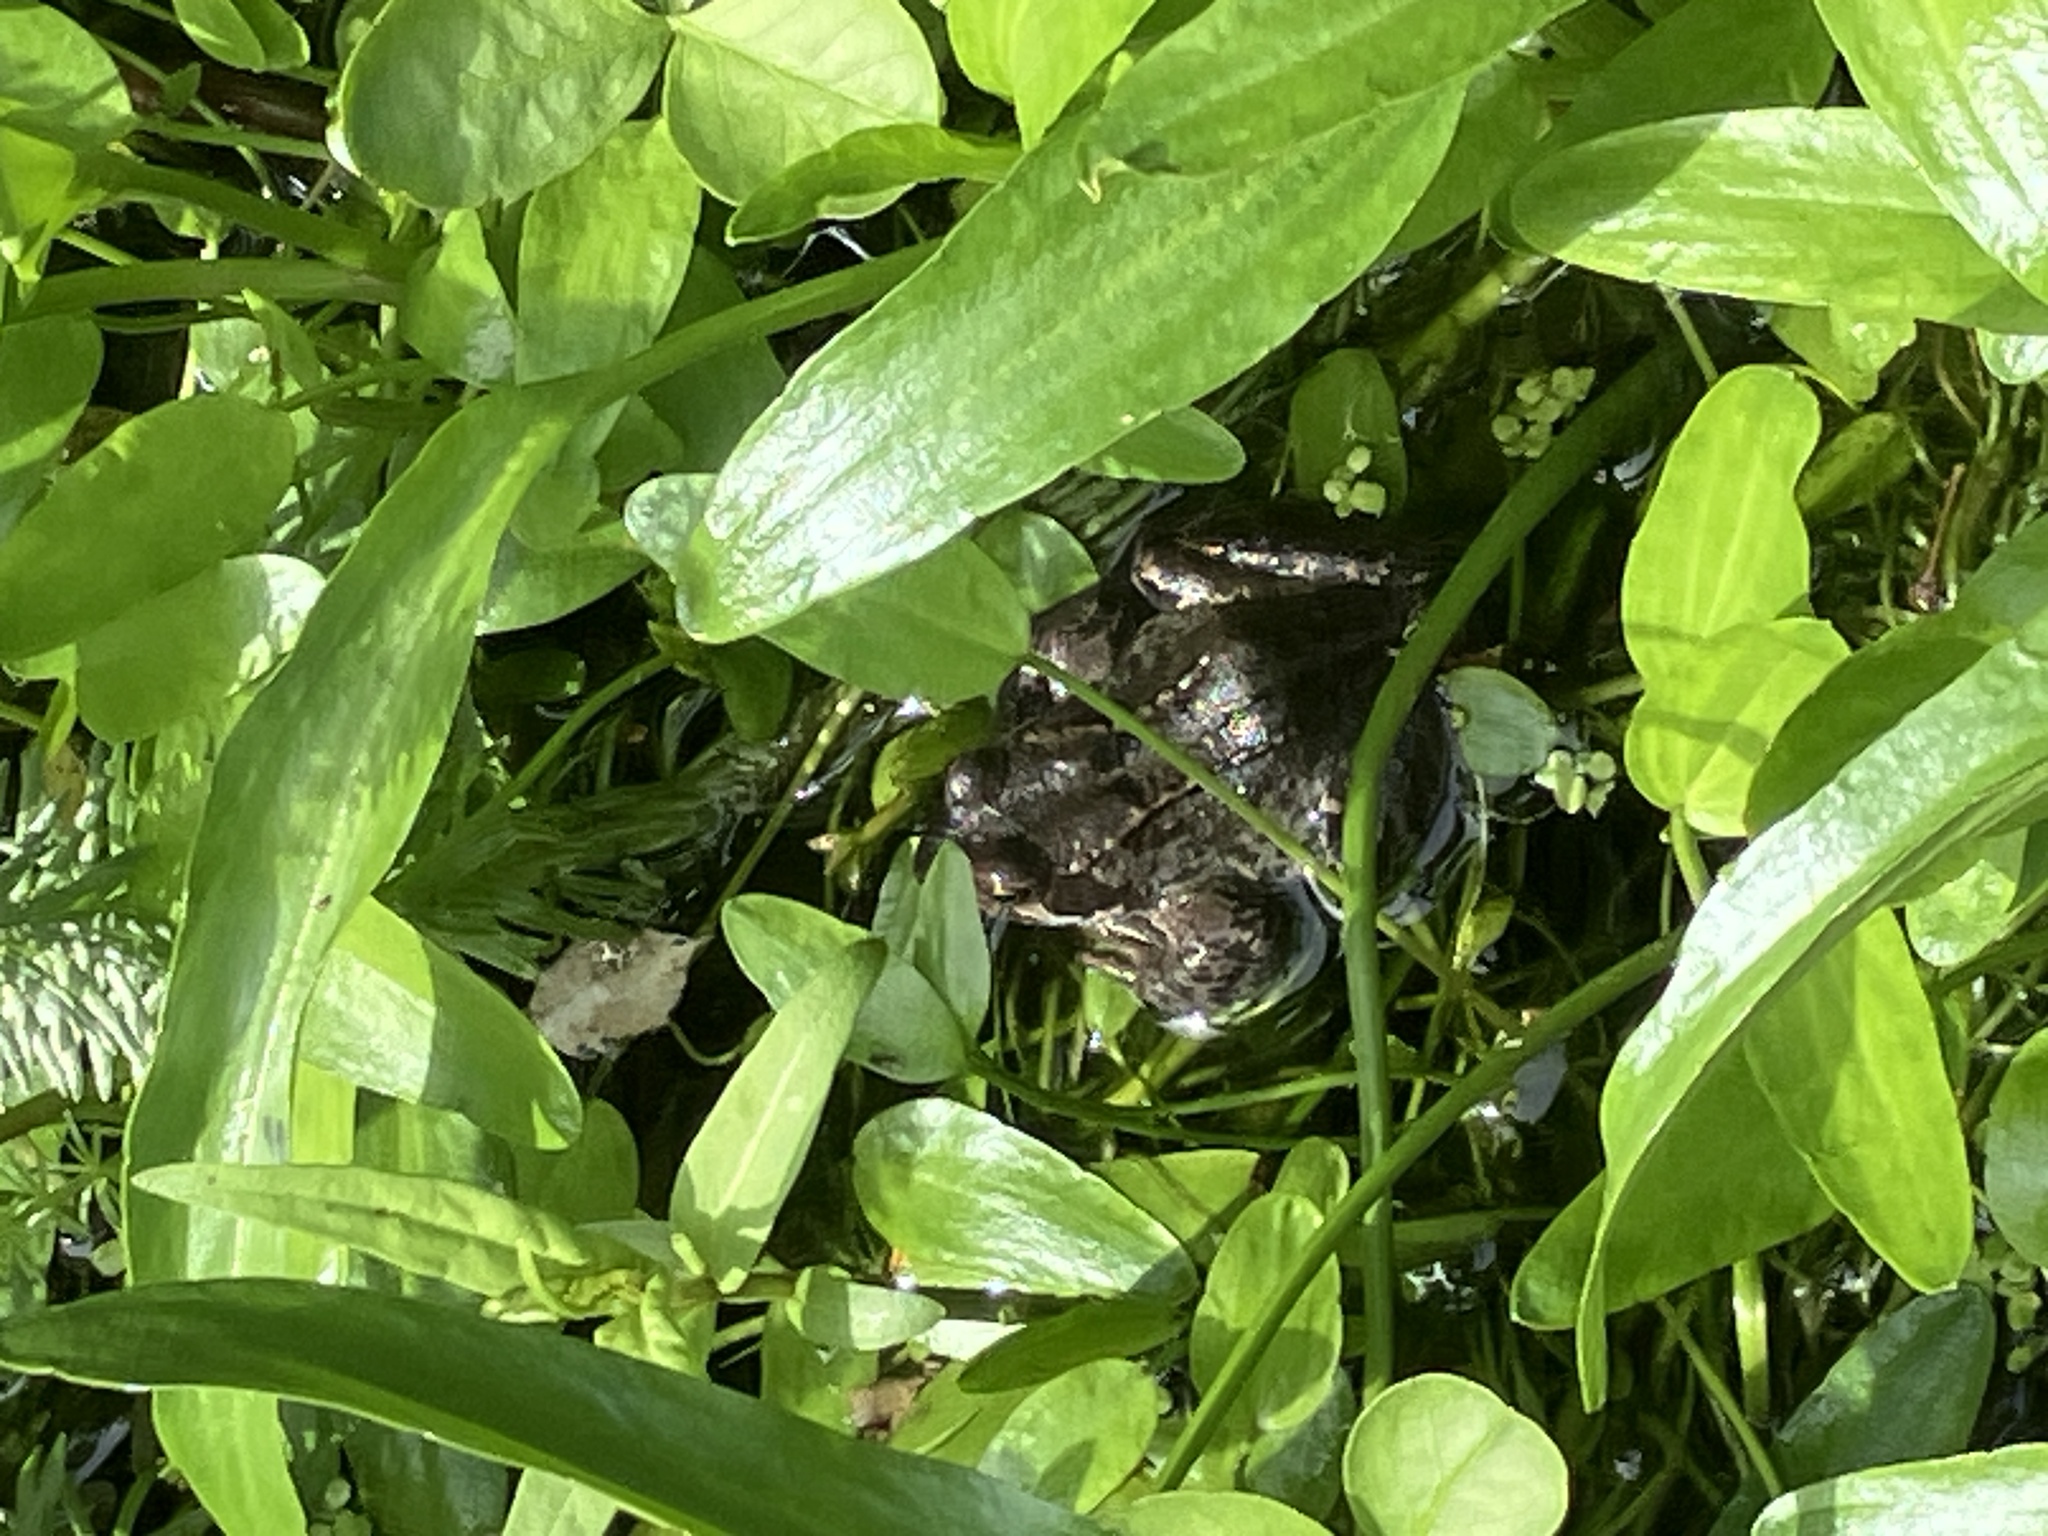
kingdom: Animalia
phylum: Chordata
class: Amphibia
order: Anura
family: Ranidae
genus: Rana
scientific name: Rana temporaria
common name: Common frog
